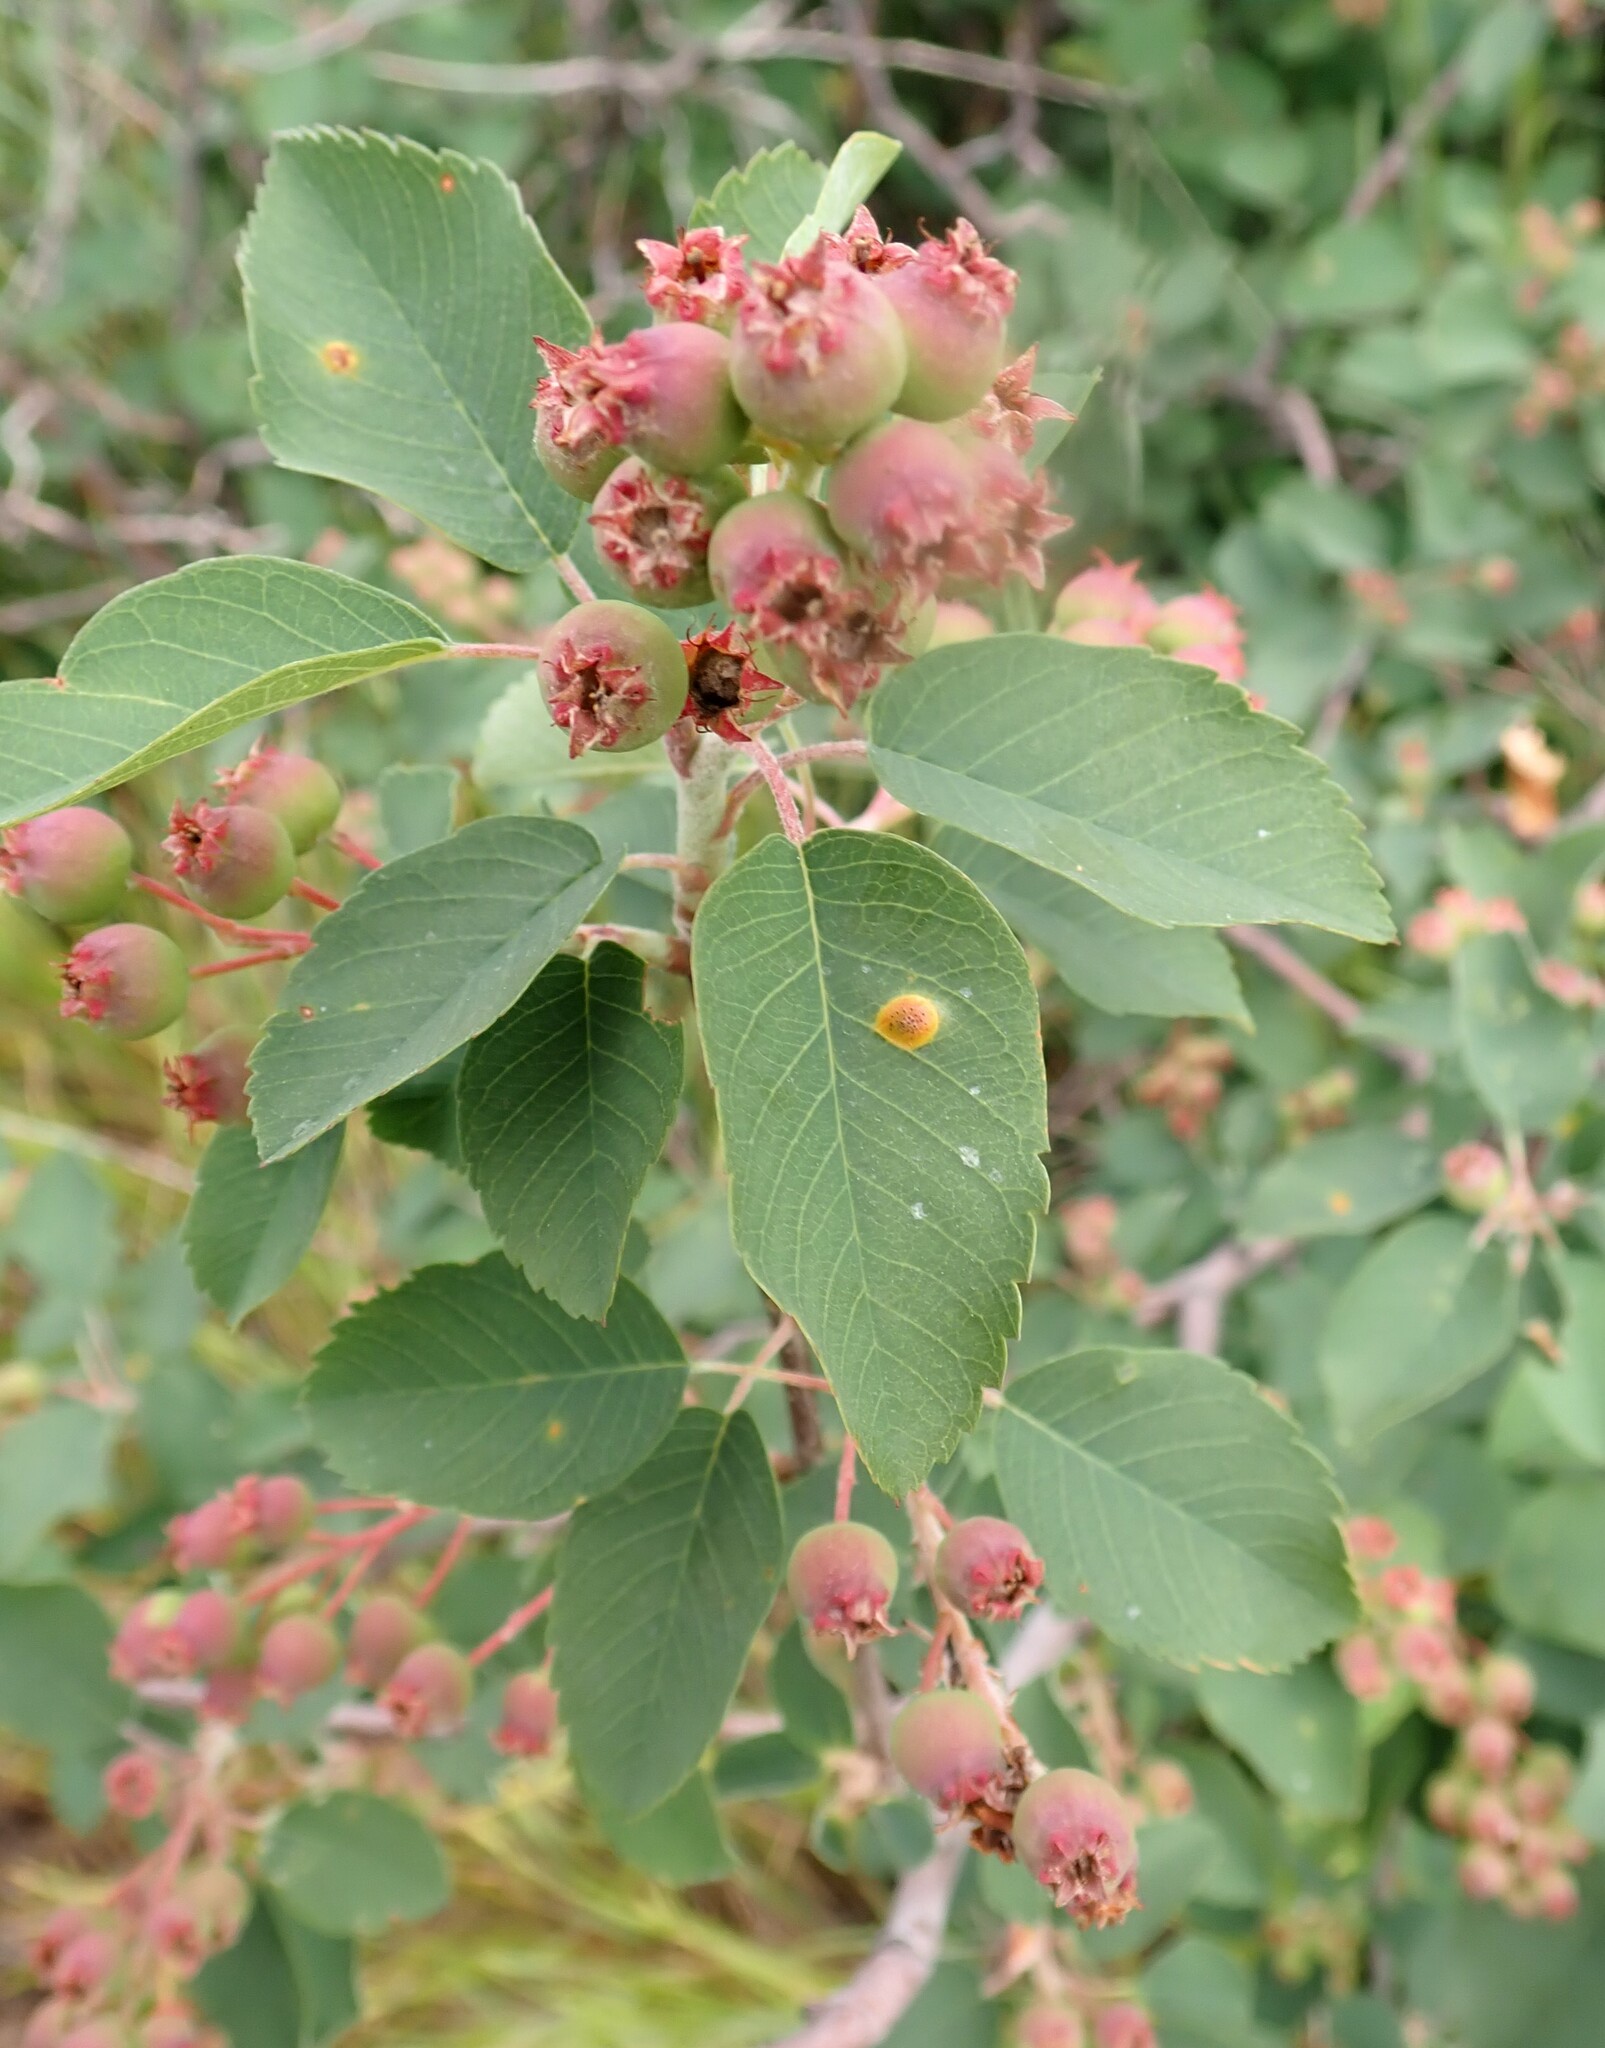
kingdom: Plantae
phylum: Tracheophyta
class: Magnoliopsida
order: Rosales
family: Rosaceae
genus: Amelanchier
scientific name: Amelanchier alnifolia
